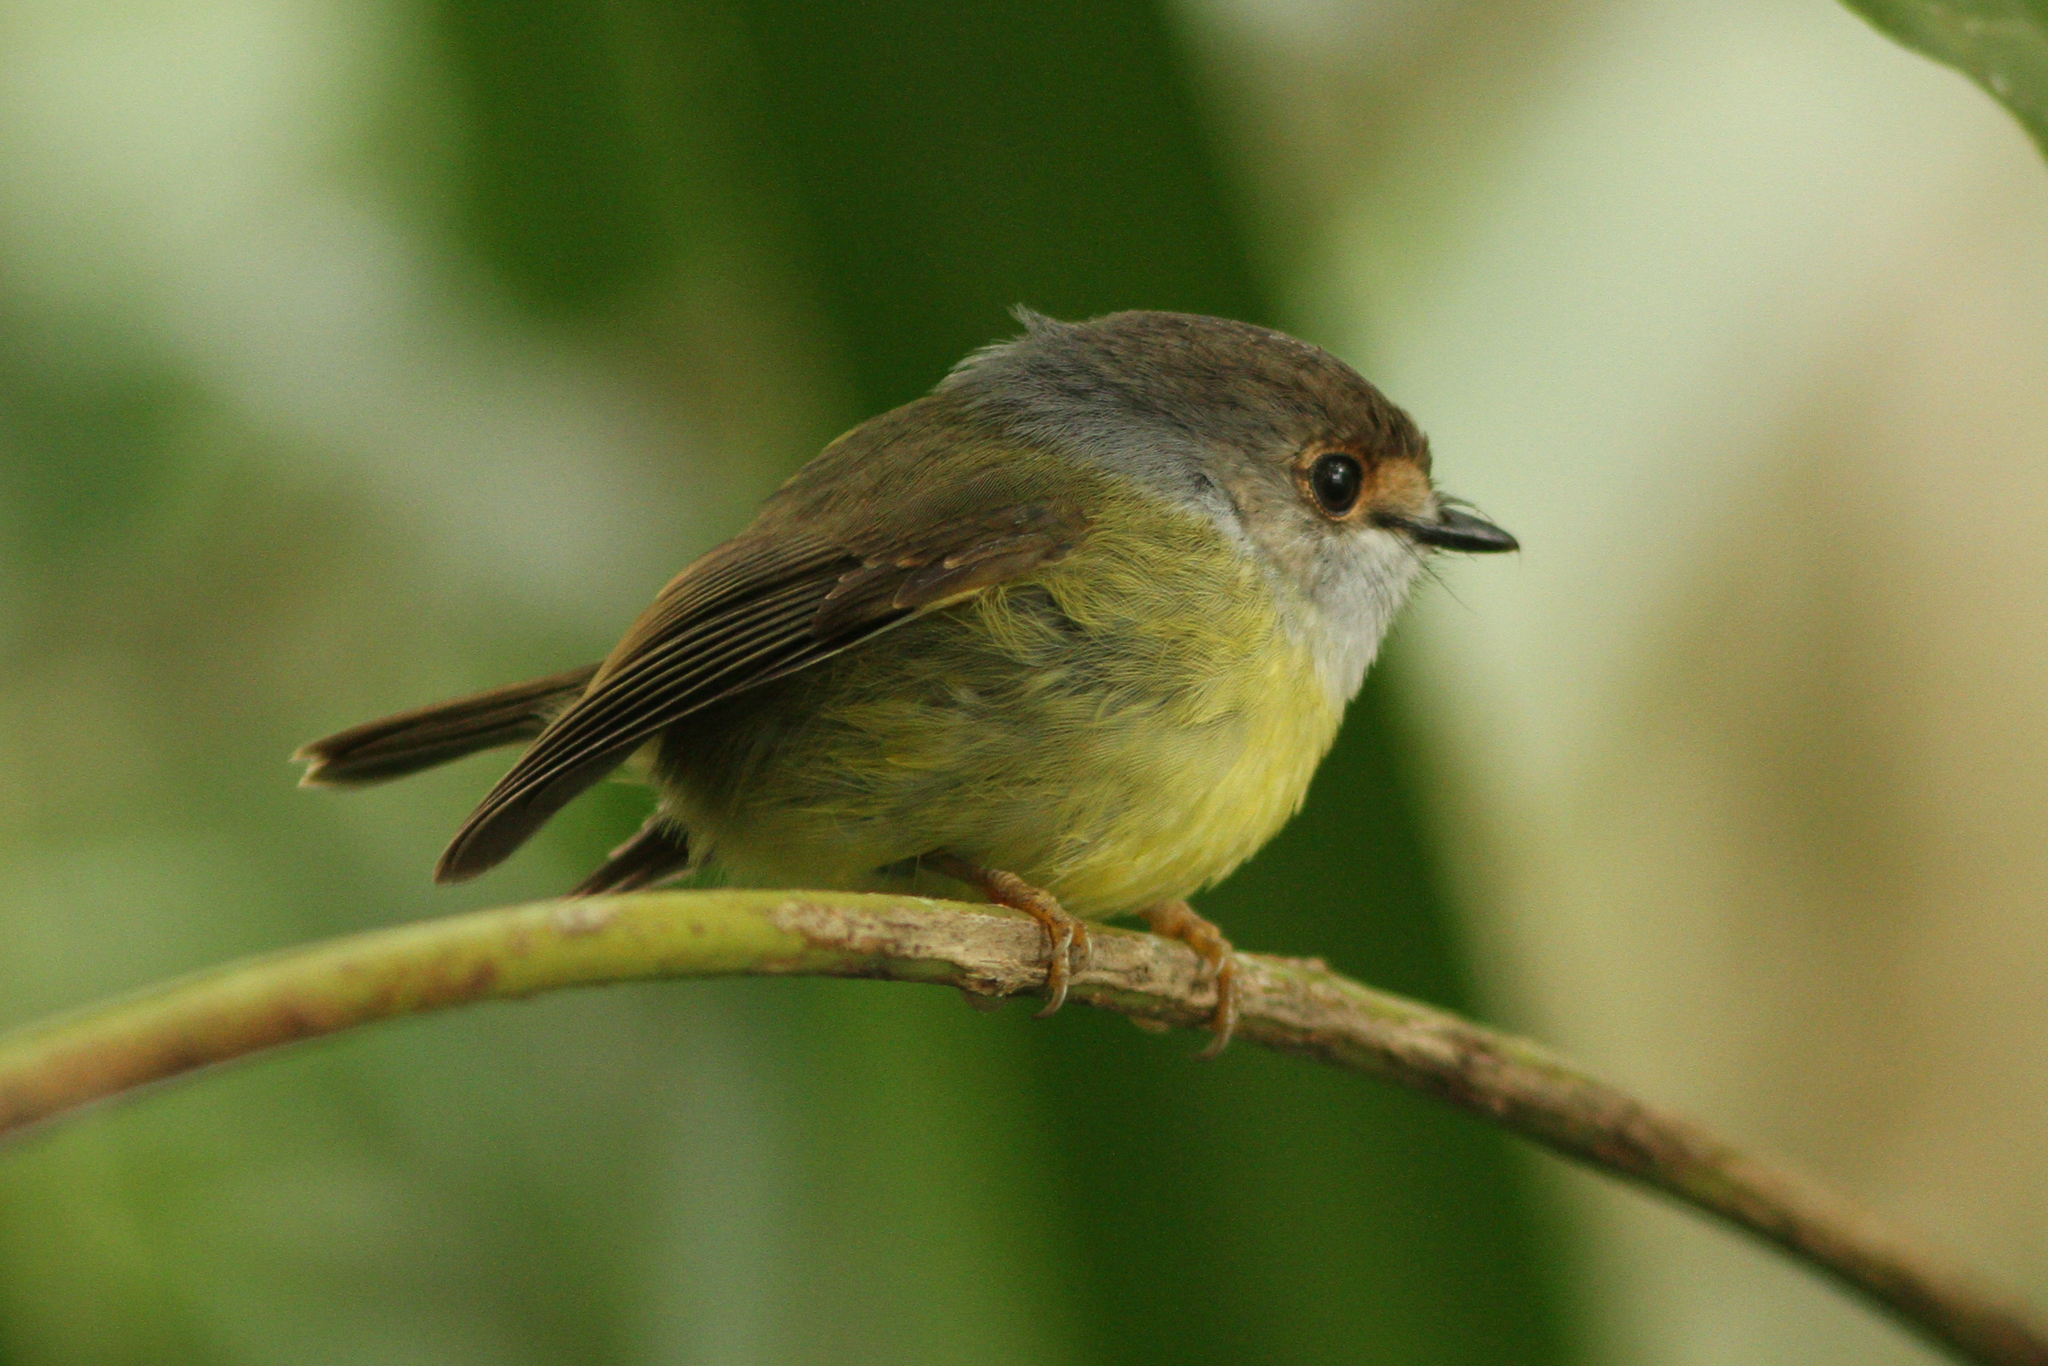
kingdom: Animalia
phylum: Chordata
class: Aves
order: Passeriformes
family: Petroicidae
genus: Eopsaltria
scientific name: Eopsaltria
